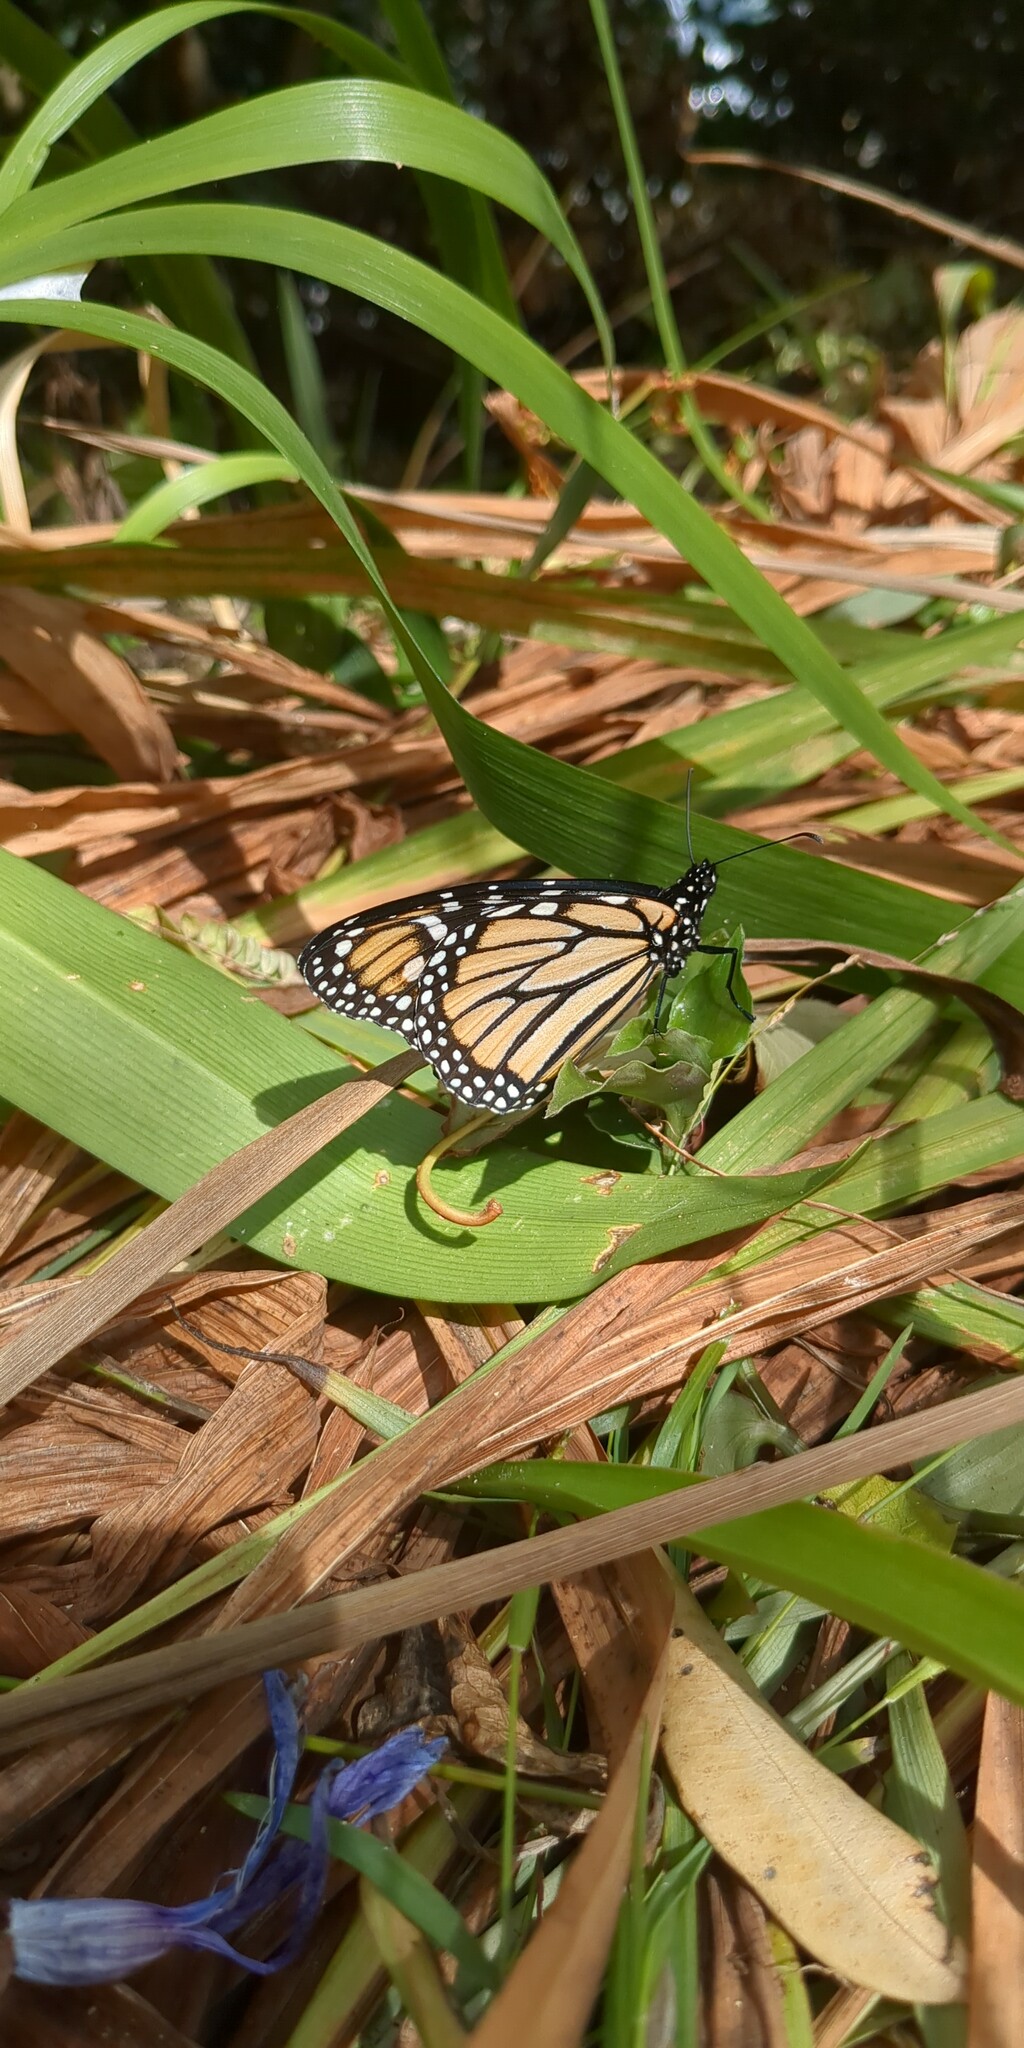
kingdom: Animalia
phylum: Arthropoda
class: Insecta
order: Lepidoptera
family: Nymphalidae
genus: Danaus
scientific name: Danaus plexippus
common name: Monarch
